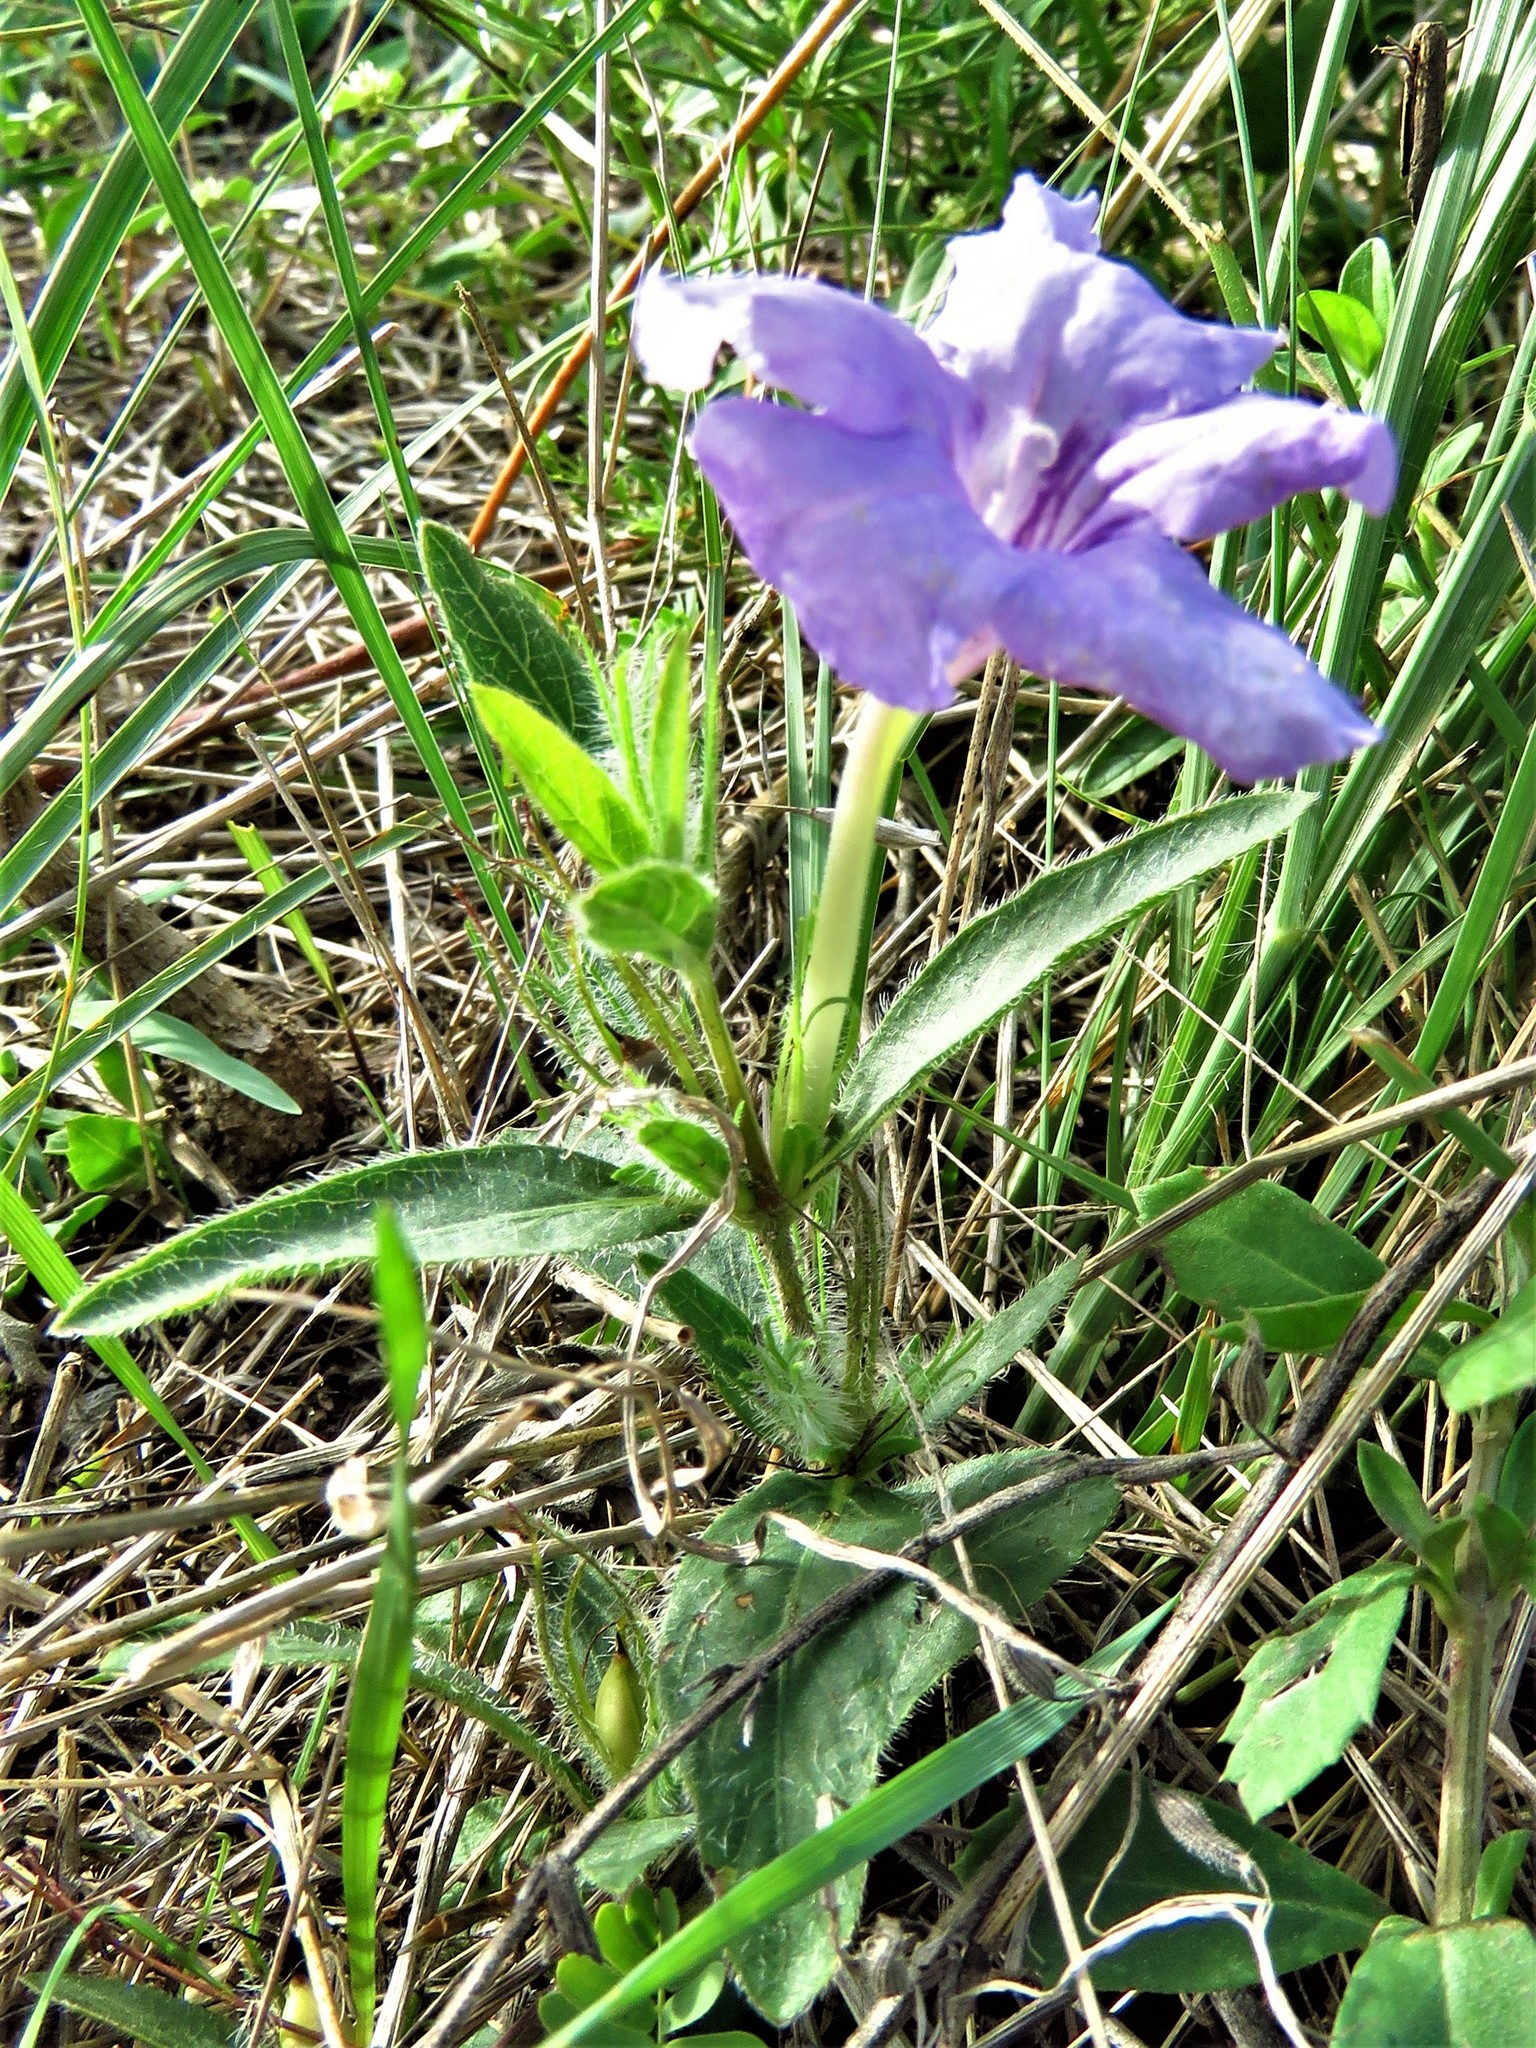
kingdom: Plantae
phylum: Tracheophyta
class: Magnoliopsida
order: Lamiales
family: Acanthaceae
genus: Ruellia
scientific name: Ruellia humilis
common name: Fringe-leaf ruellia
